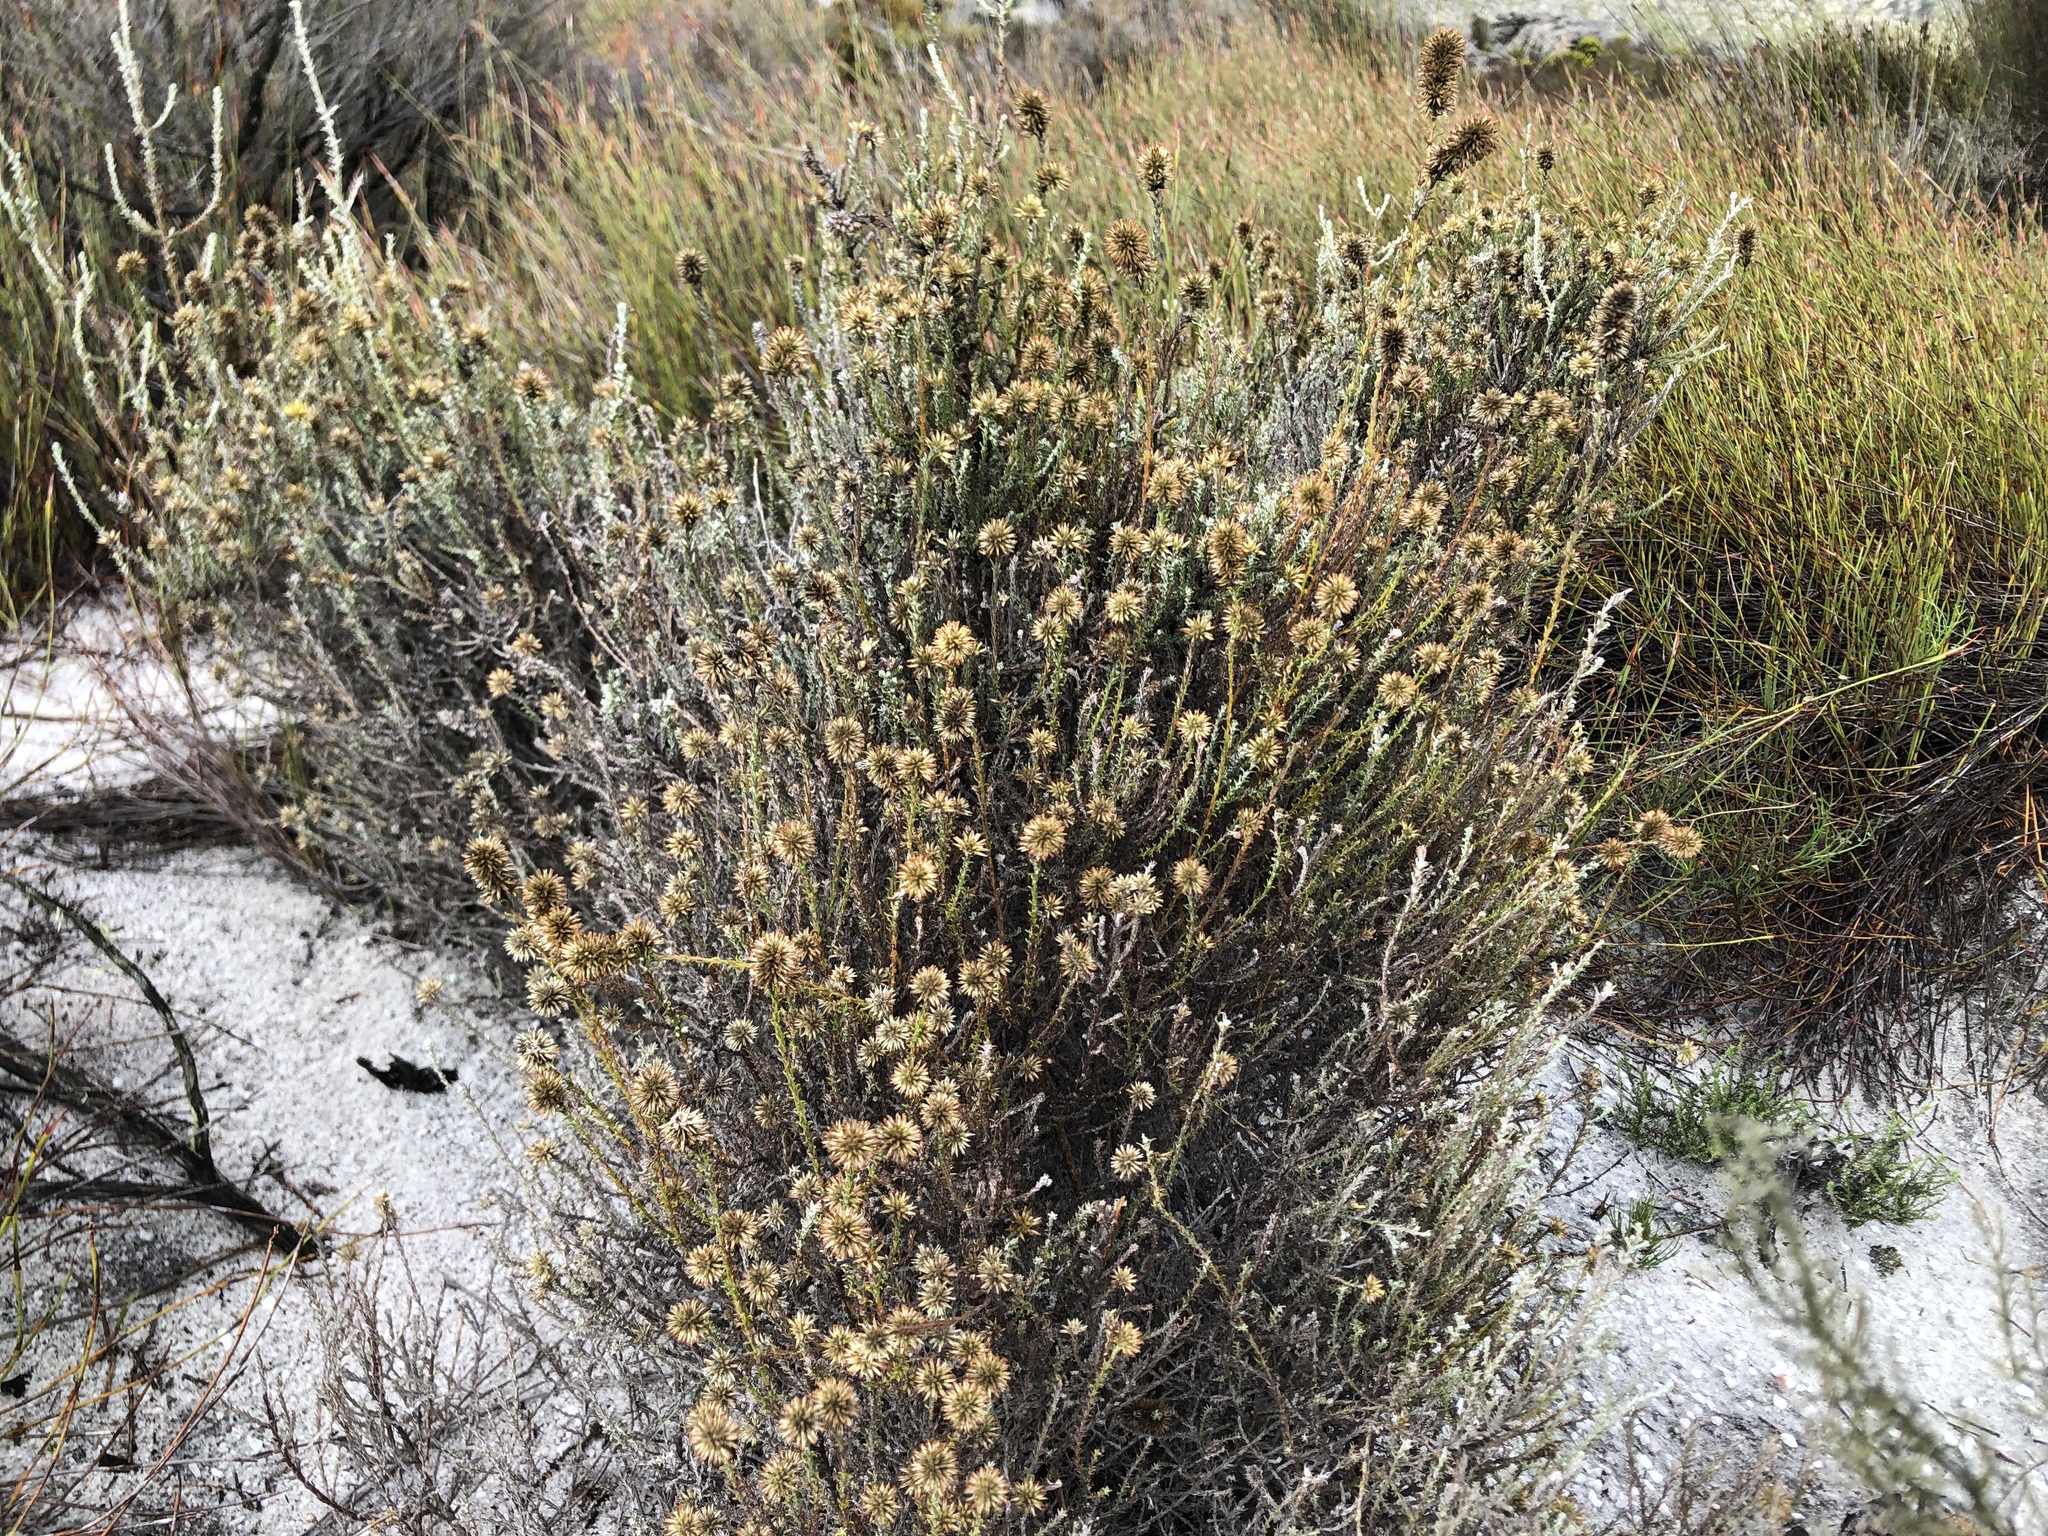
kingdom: Plantae
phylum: Tracheophyta
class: Magnoliopsida
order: Asterales
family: Asteraceae
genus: Seriphium
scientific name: Seriphium cinereum
